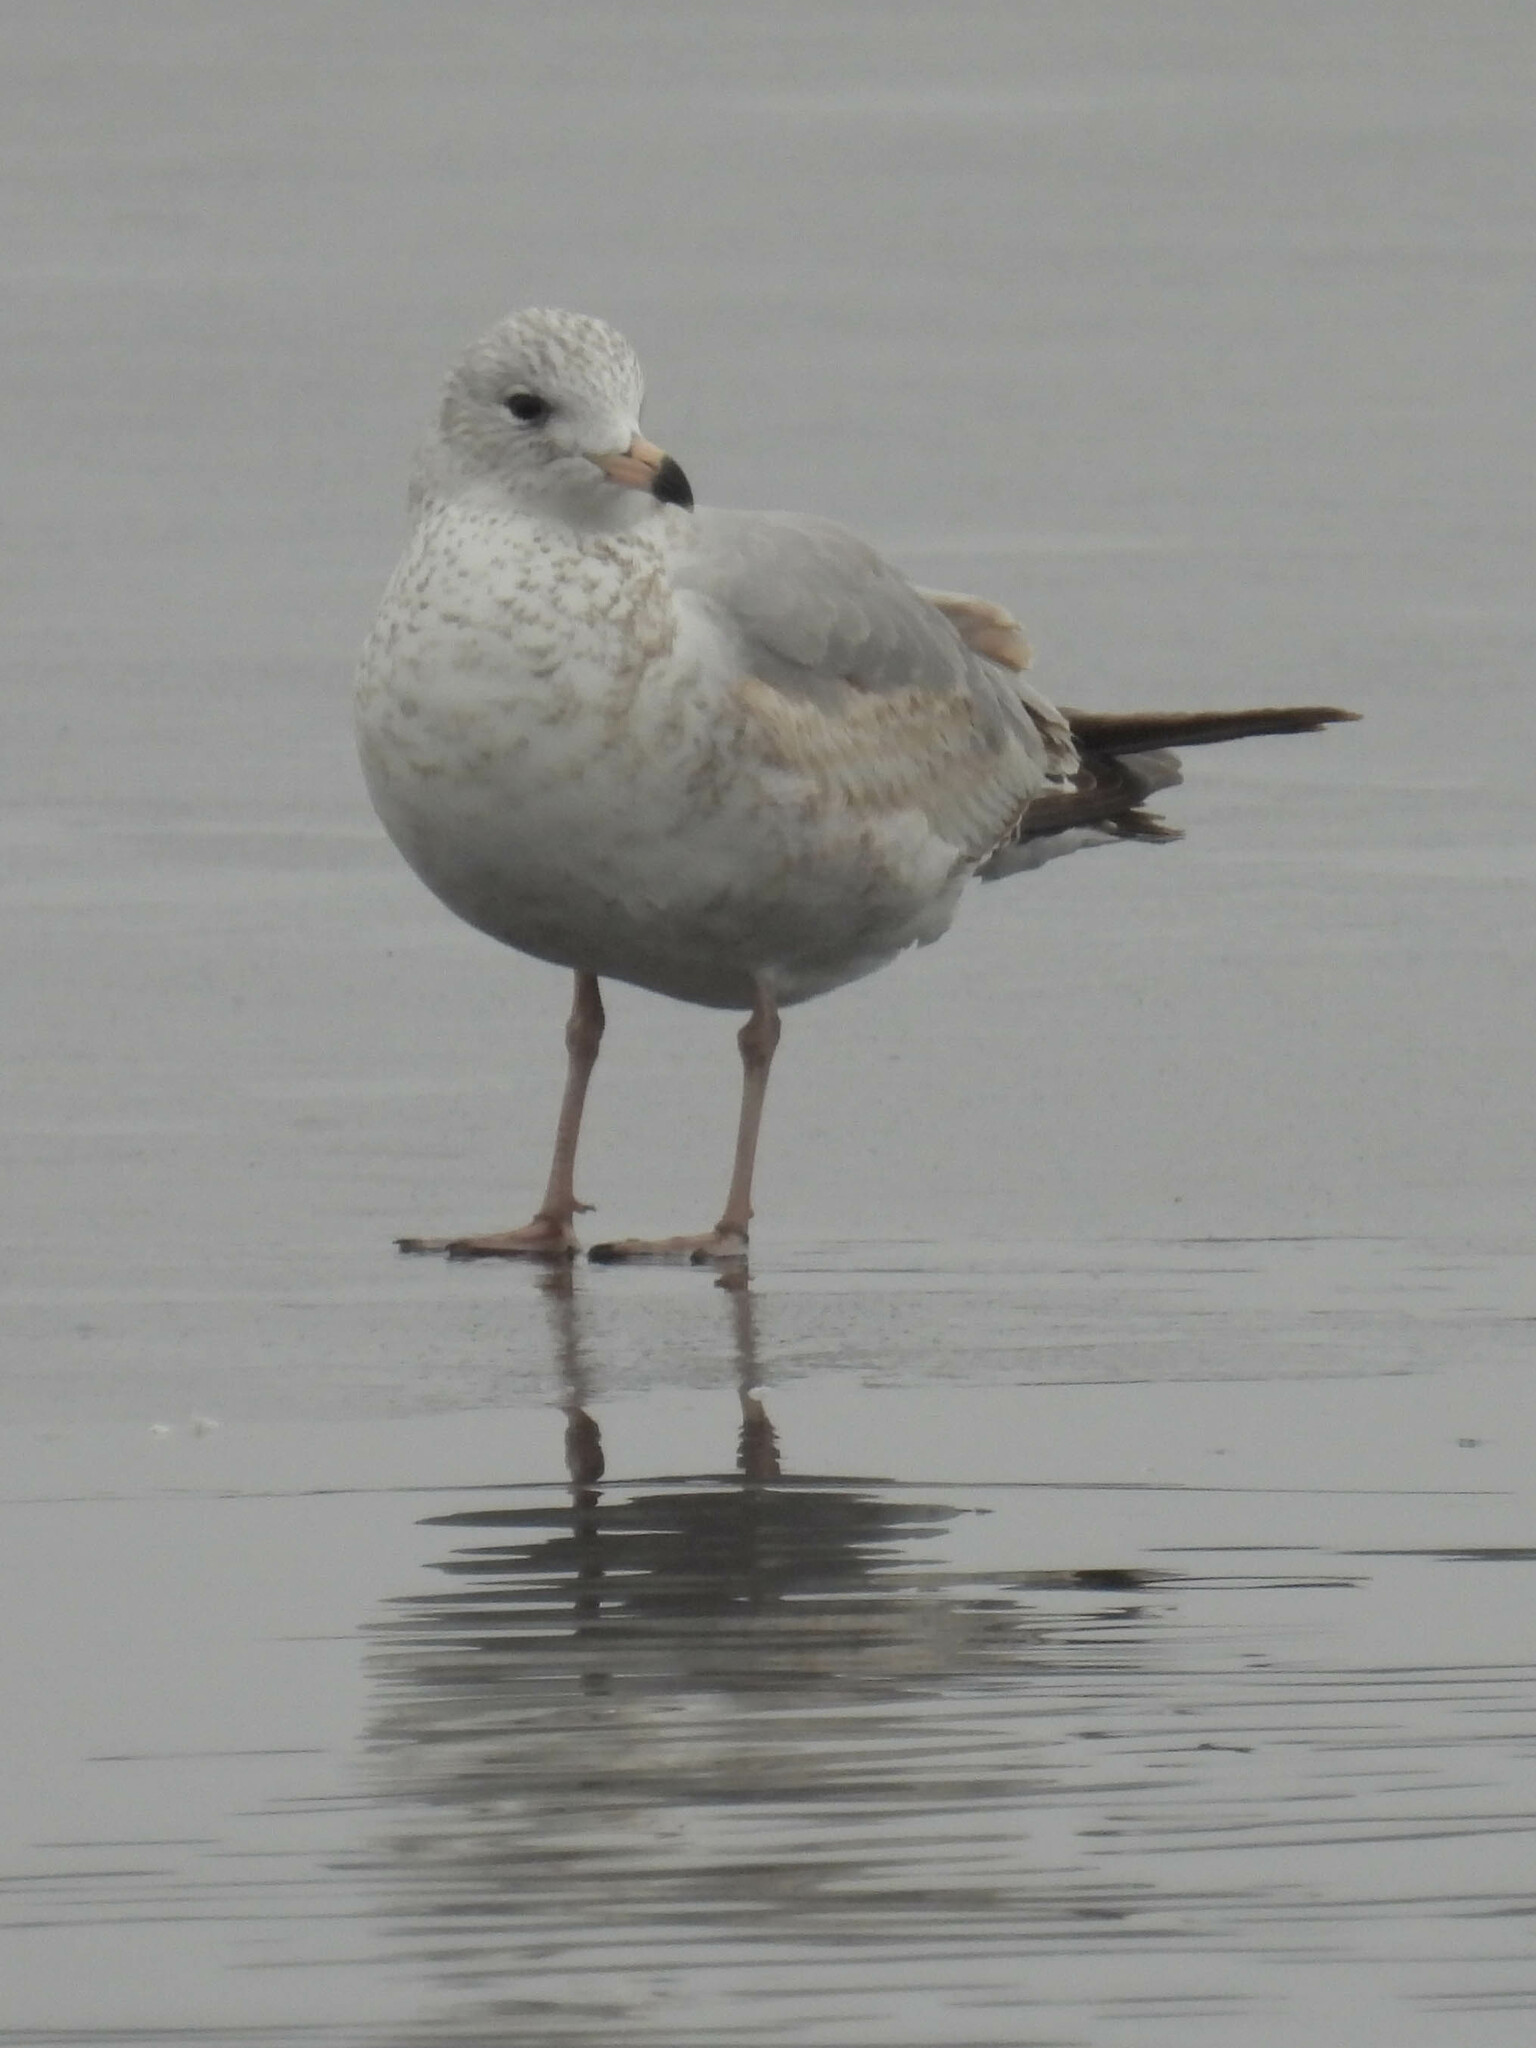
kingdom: Animalia
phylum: Chordata
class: Aves
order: Charadriiformes
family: Laridae
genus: Larus
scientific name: Larus delawarensis
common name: Ring-billed gull
